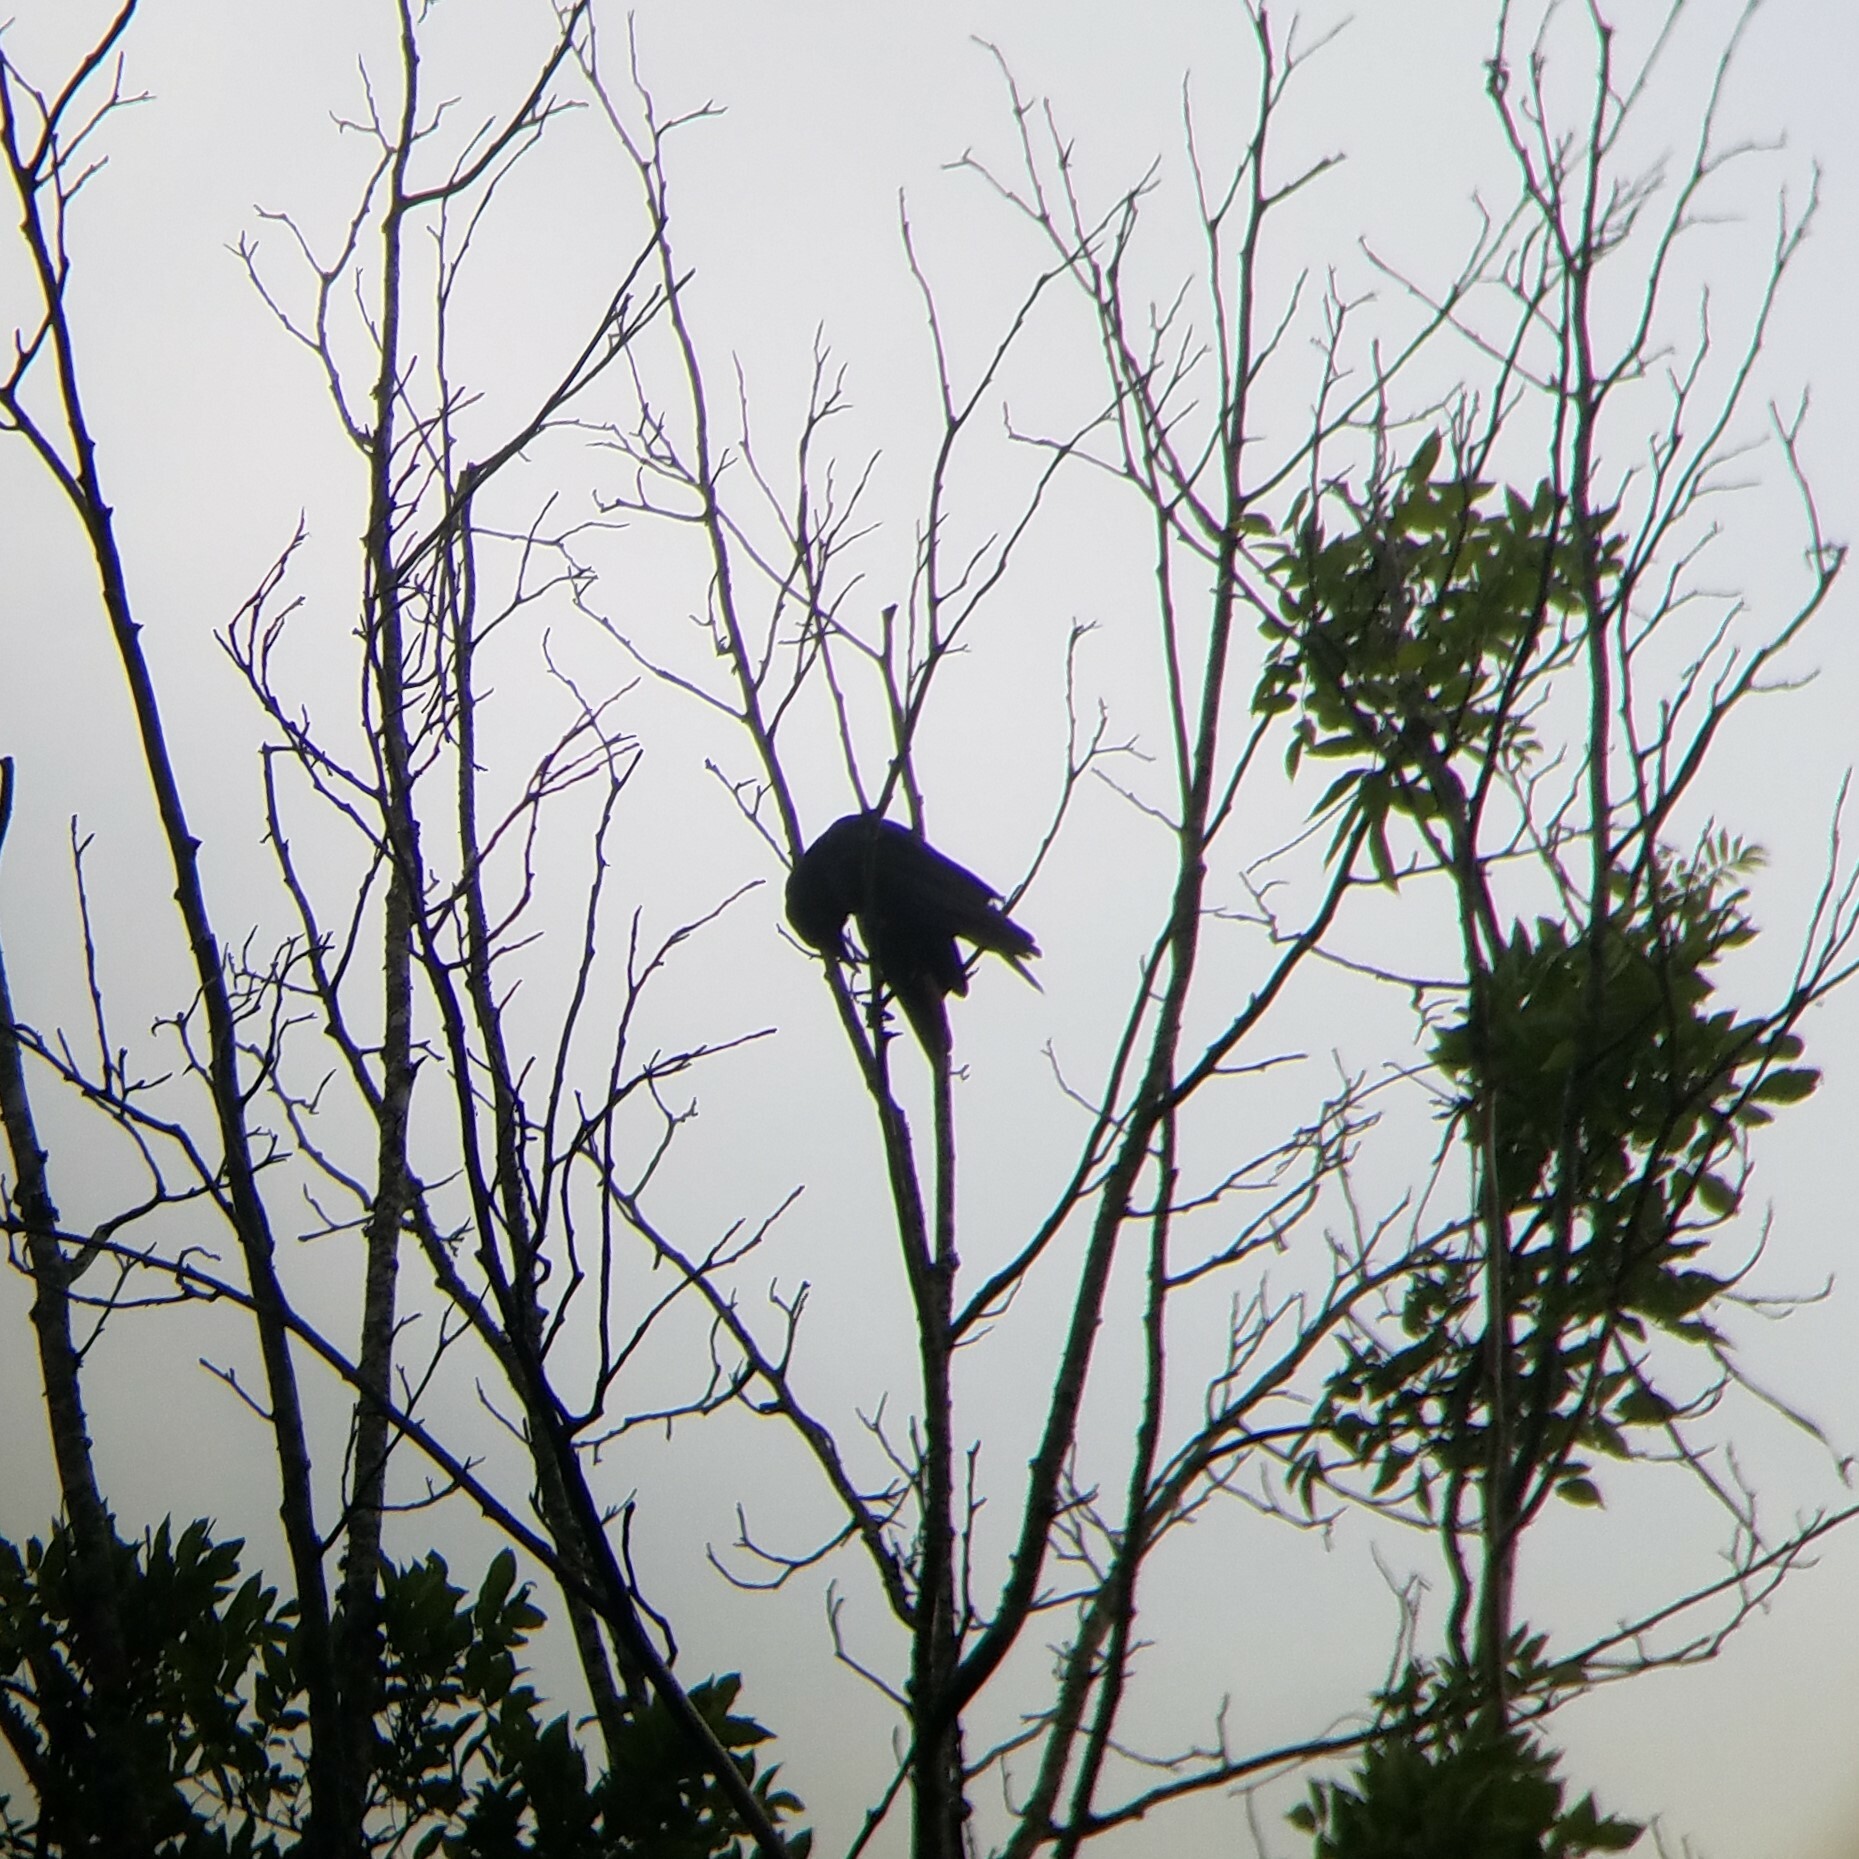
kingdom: Animalia
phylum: Chordata
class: Aves
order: Passeriformes
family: Corvidae
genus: Corvus
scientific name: Corvus brachyrhynchos
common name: American crow
